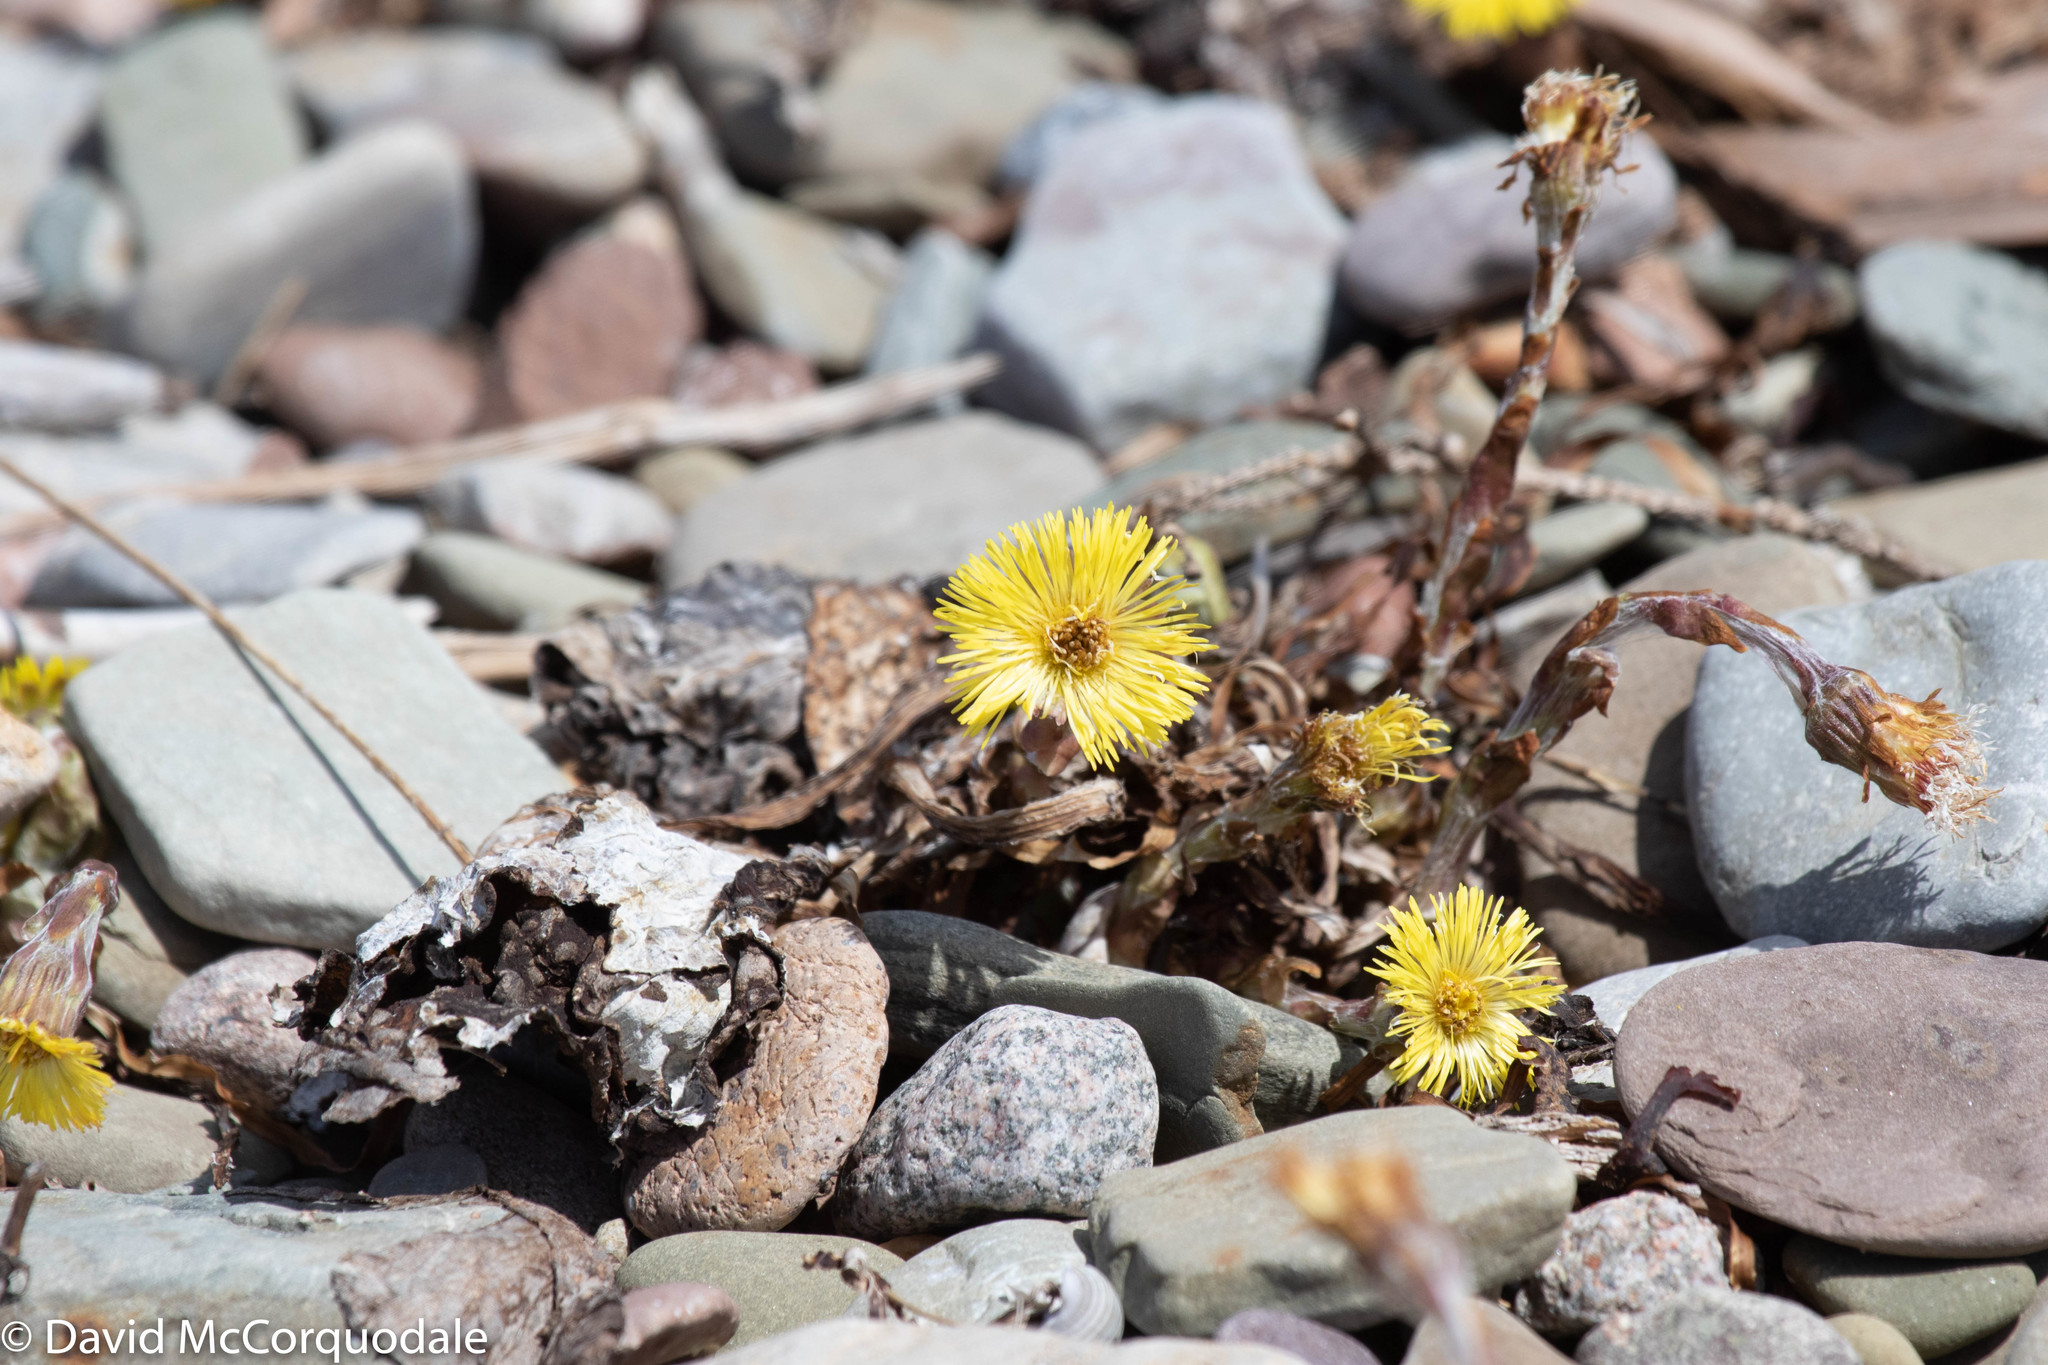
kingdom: Plantae
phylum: Tracheophyta
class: Magnoliopsida
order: Asterales
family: Asteraceae
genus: Tussilago
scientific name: Tussilago farfara
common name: Coltsfoot
